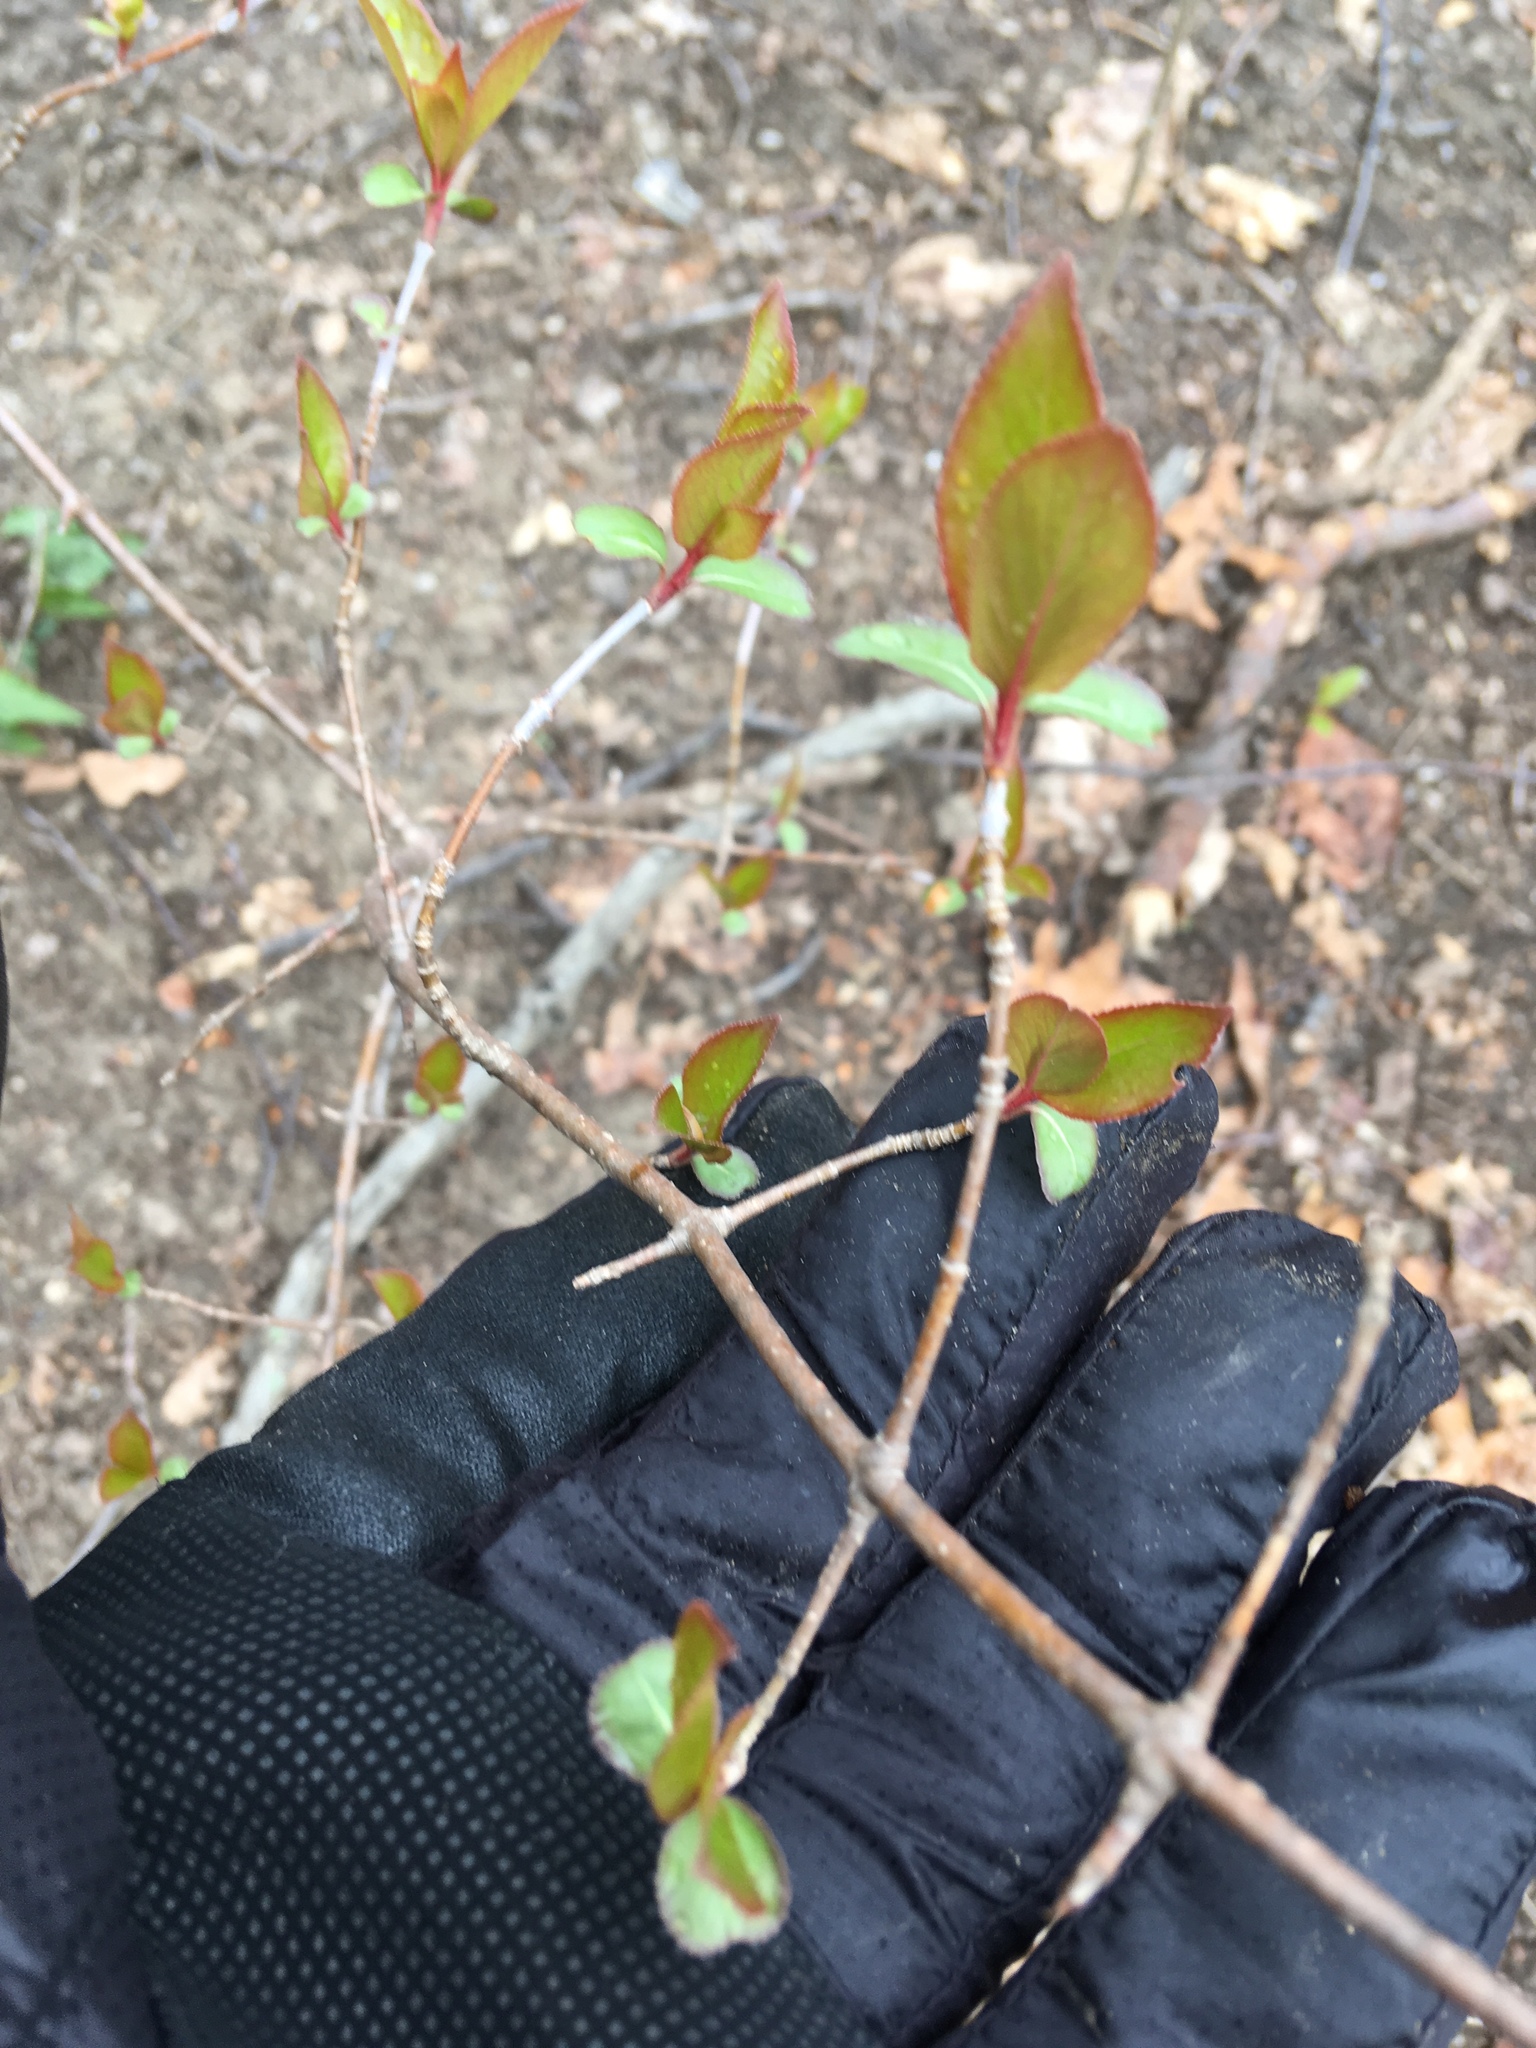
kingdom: Plantae
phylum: Tracheophyta
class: Magnoliopsida
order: Dipsacales
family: Viburnaceae
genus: Viburnum
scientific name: Viburnum prunifolium
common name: Black haw
